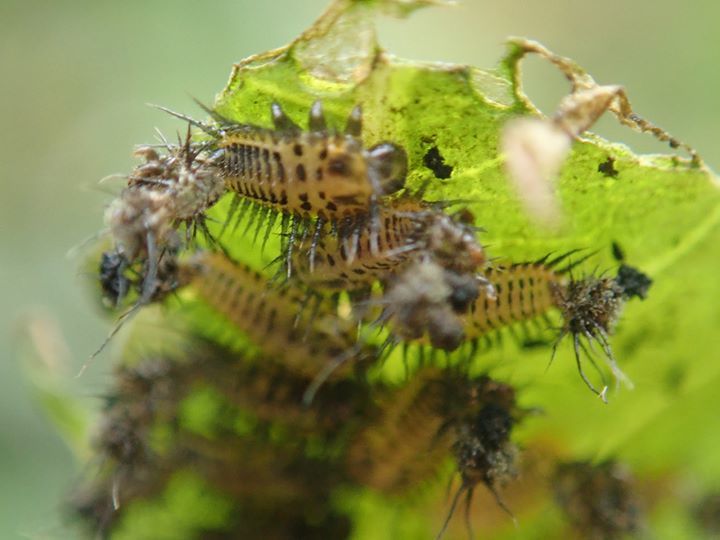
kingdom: Animalia
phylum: Arthropoda
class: Insecta
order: Coleoptera
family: Chrysomelidae
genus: Aspidimorpha
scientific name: Aspidimorpha miliaris
